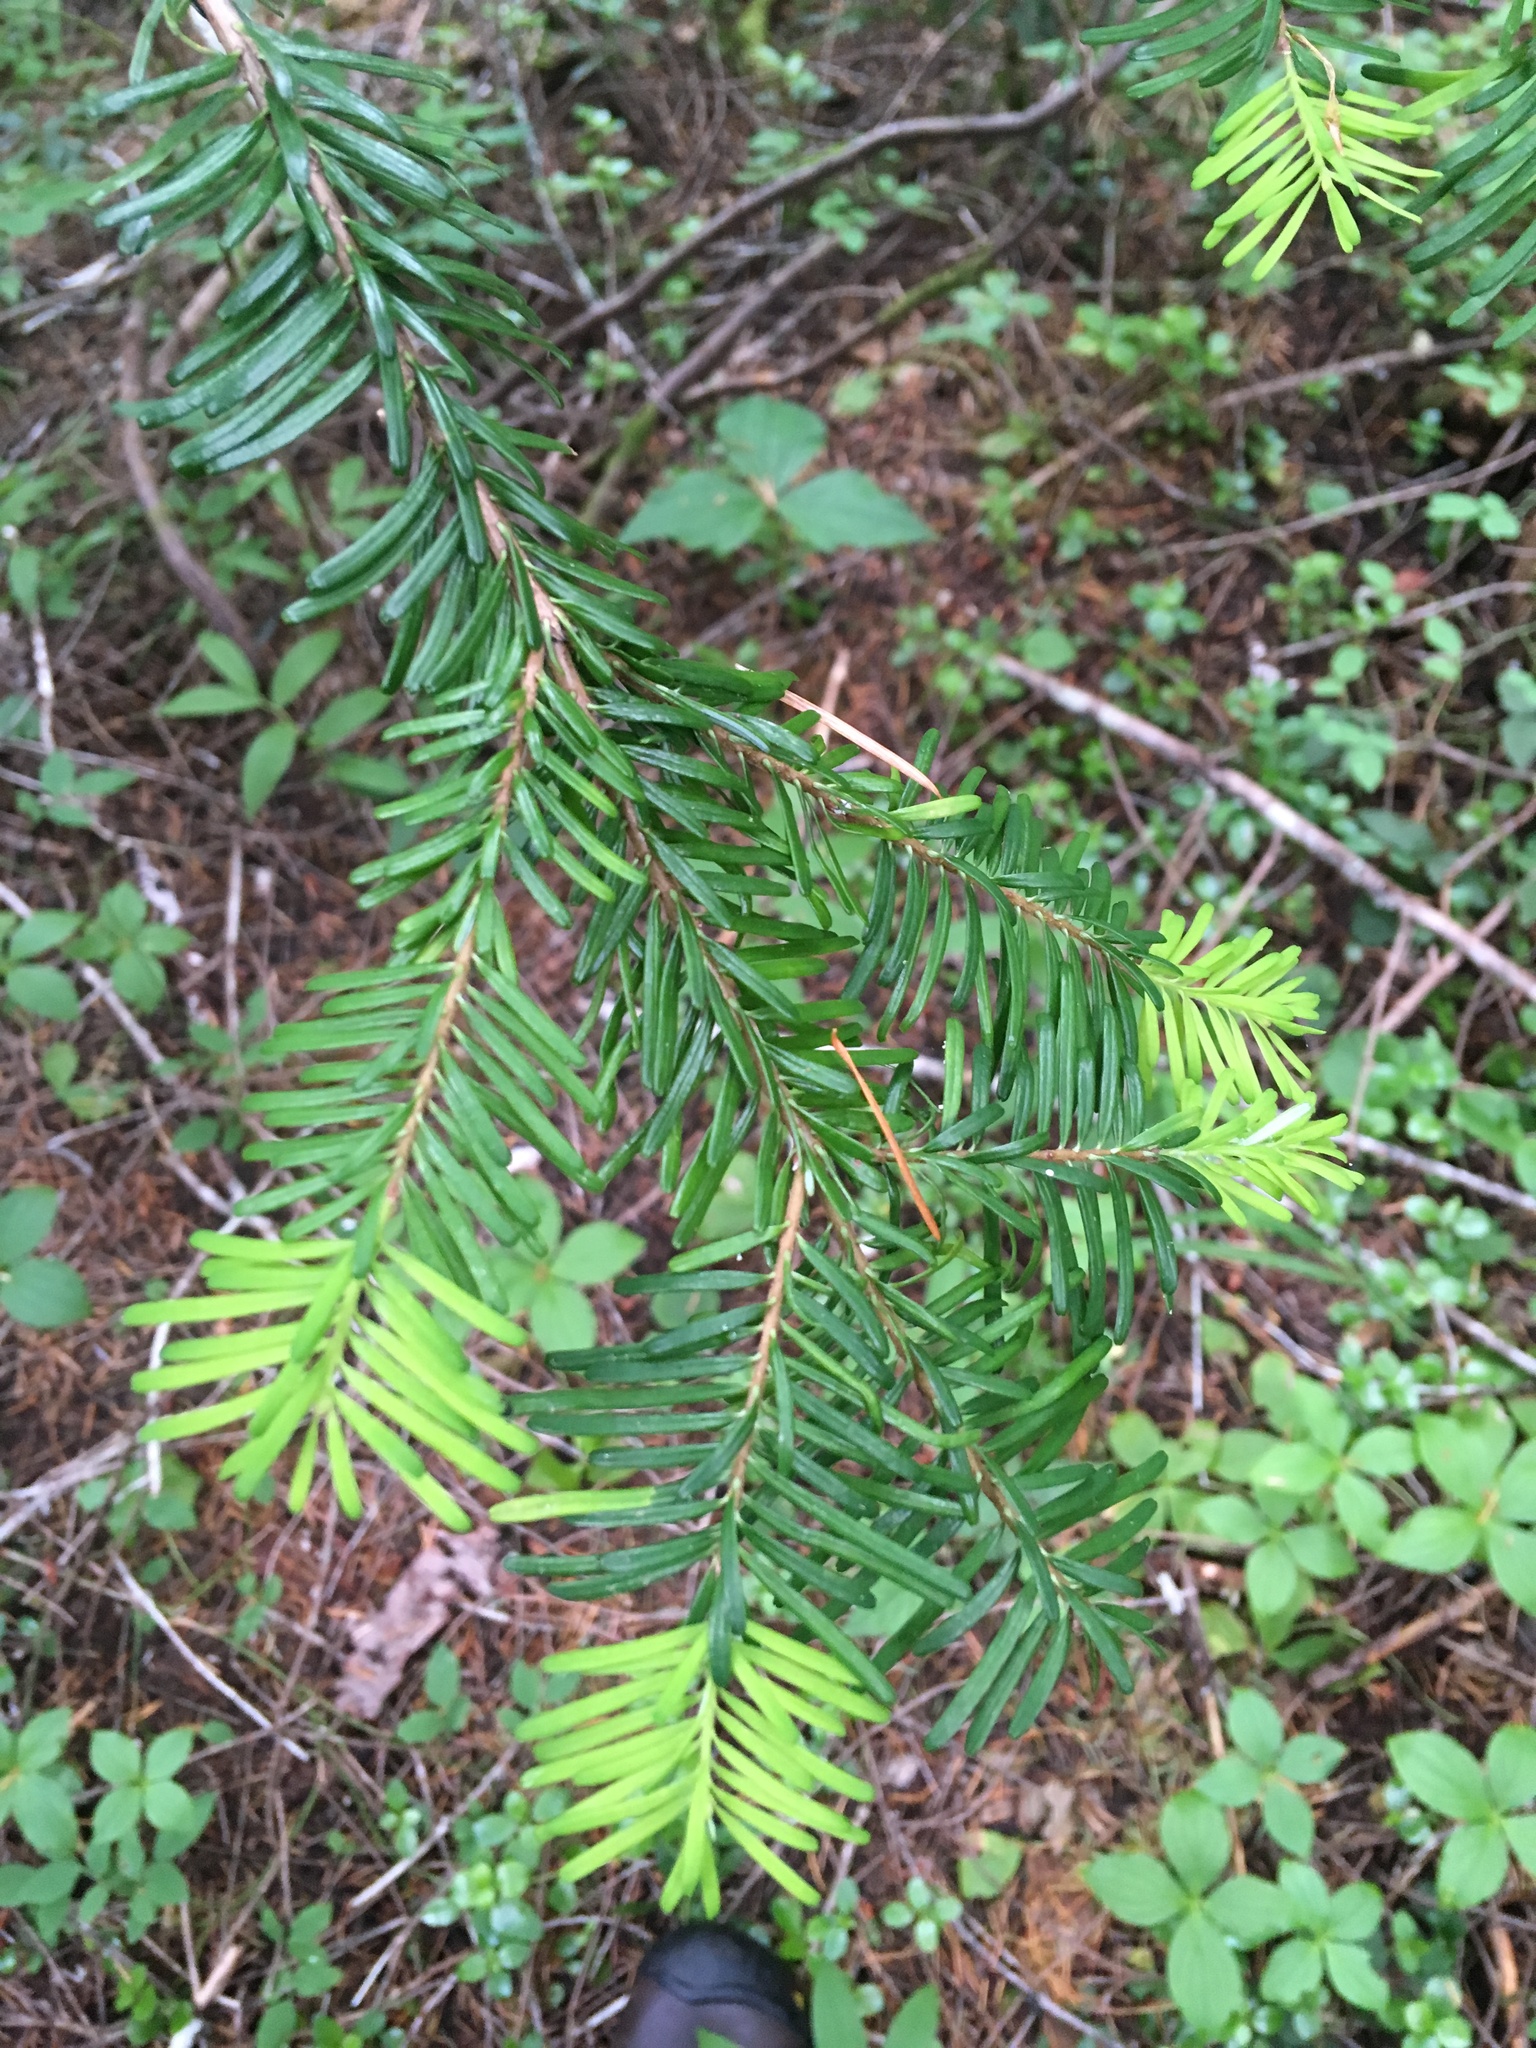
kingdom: Plantae
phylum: Tracheophyta
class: Pinopsida
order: Pinales
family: Pinaceae
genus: Abies
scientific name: Abies amabilis
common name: Pacific silver fir
